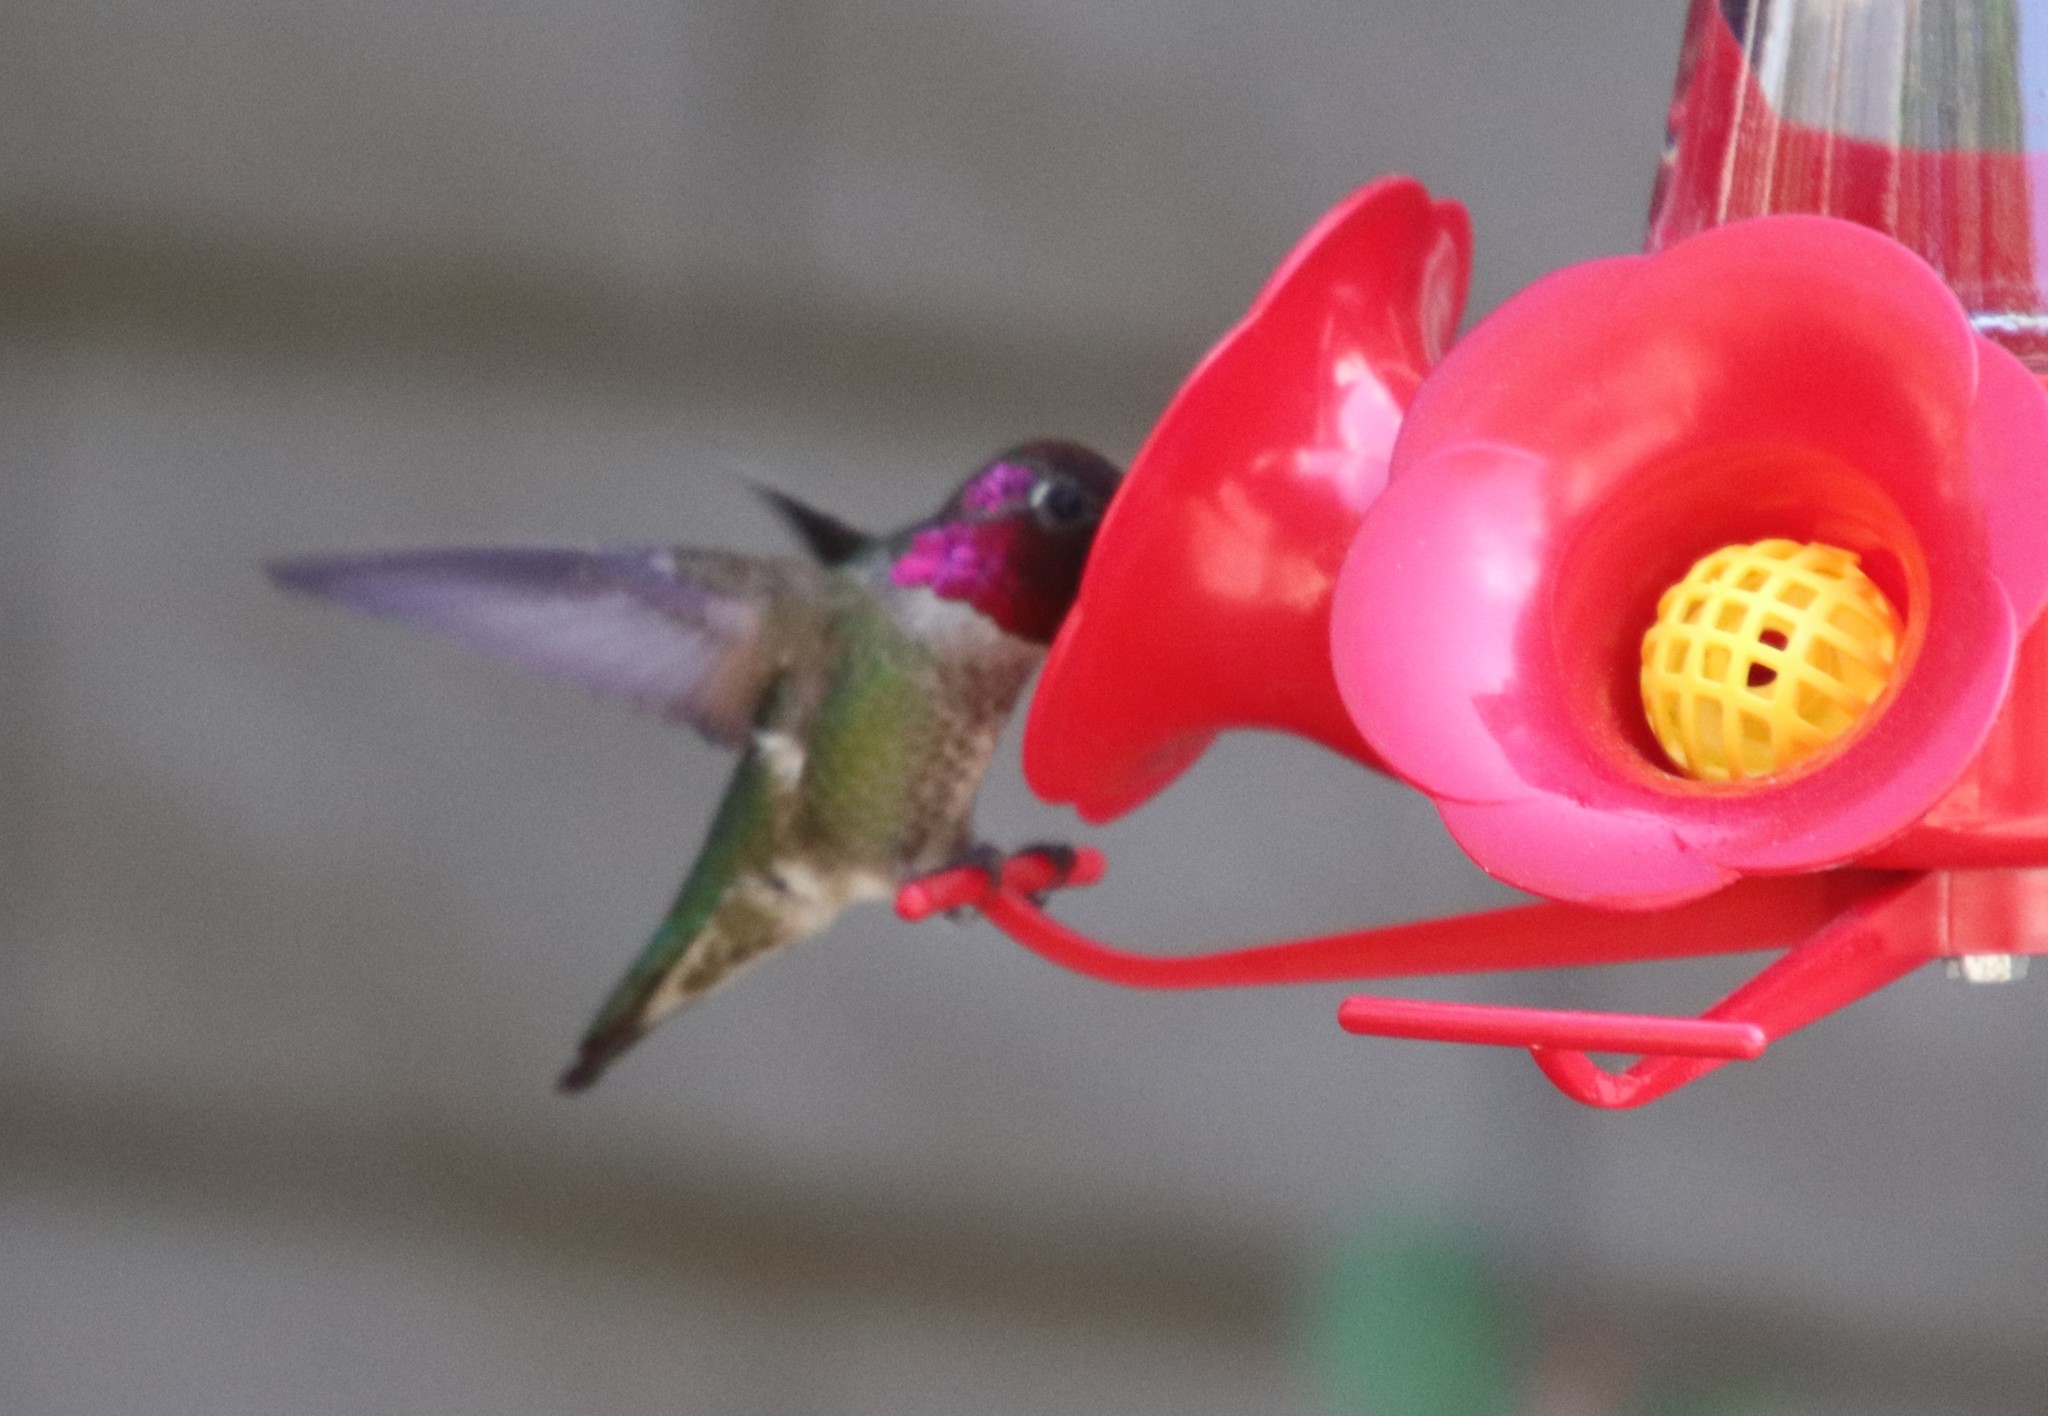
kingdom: Animalia
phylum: Chordata
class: Aves
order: Apodiformes
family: Trochilidae
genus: Calypte
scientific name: Calypte anna
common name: Anna's hummingbird
